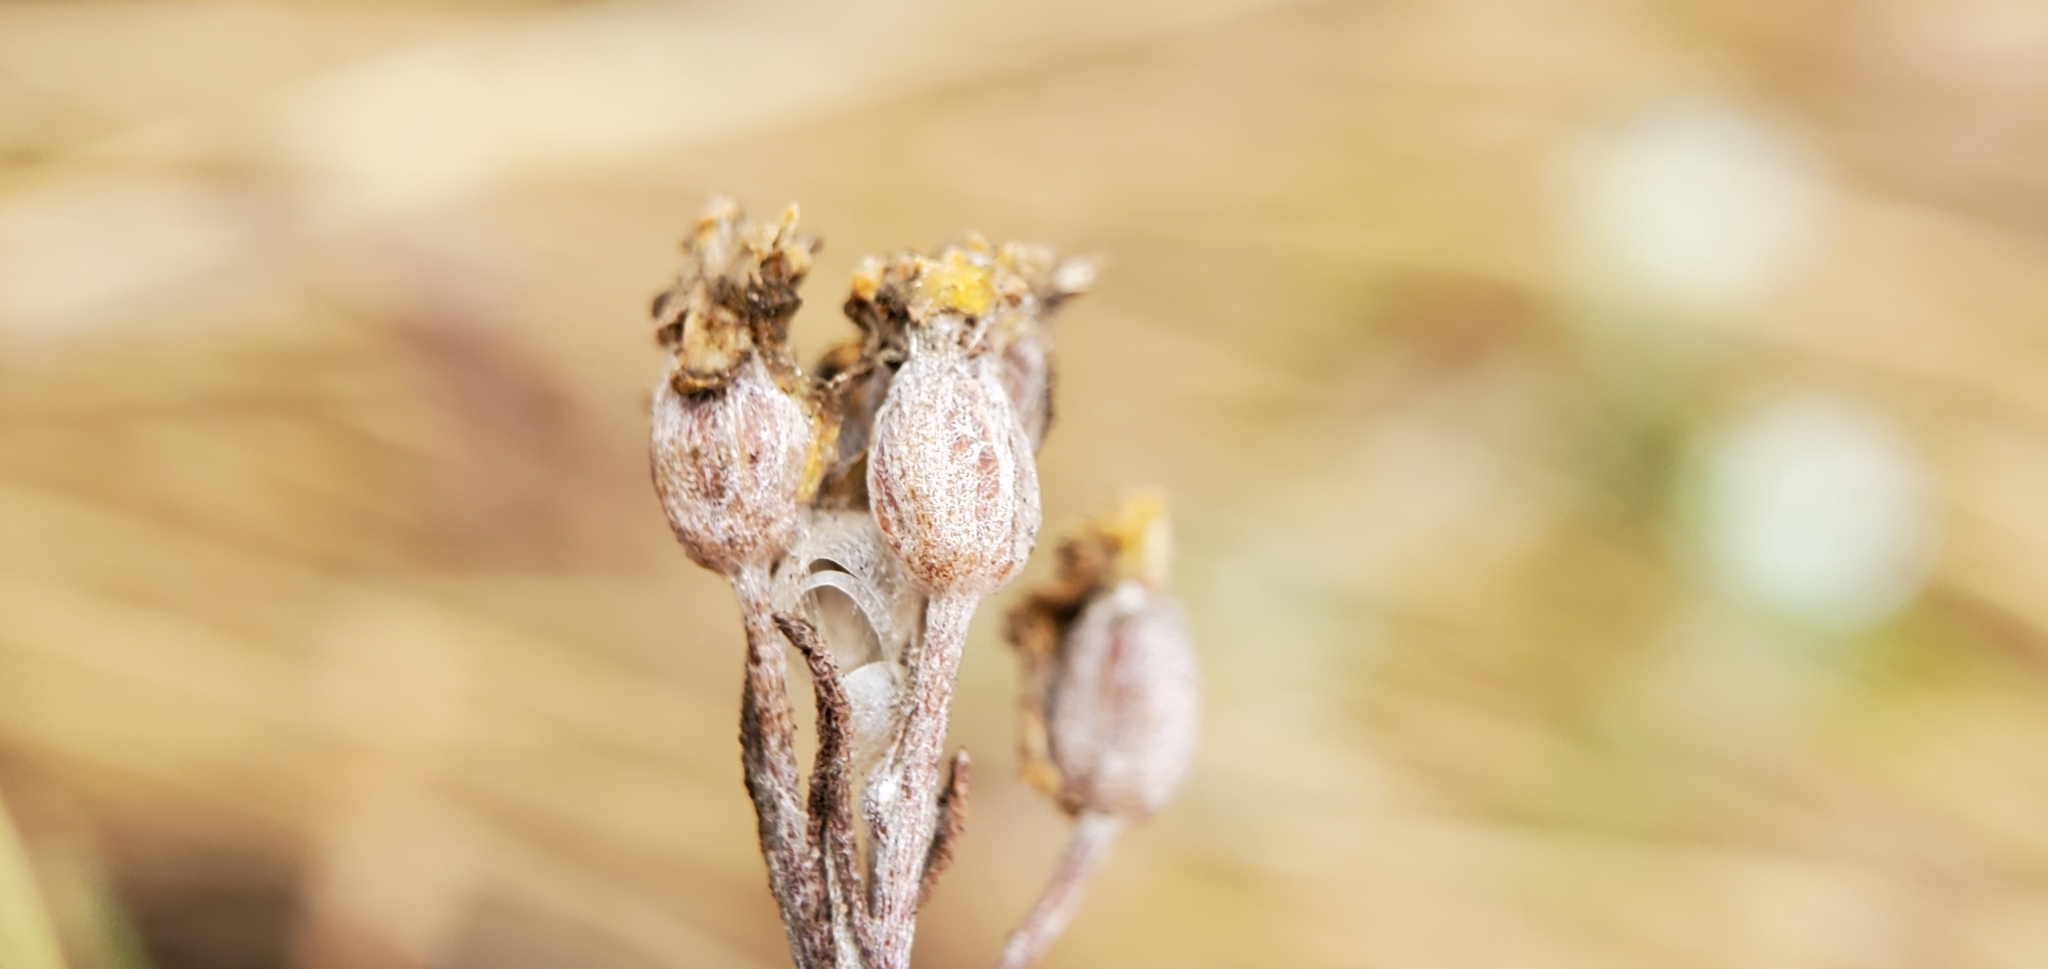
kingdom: Plantae
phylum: Tracheophyta
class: Magnoliopsida
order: Asterales
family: Asteraceae
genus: Eriophyllum
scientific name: Eriophyllum confertiflorum
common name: Golden-yarrow
